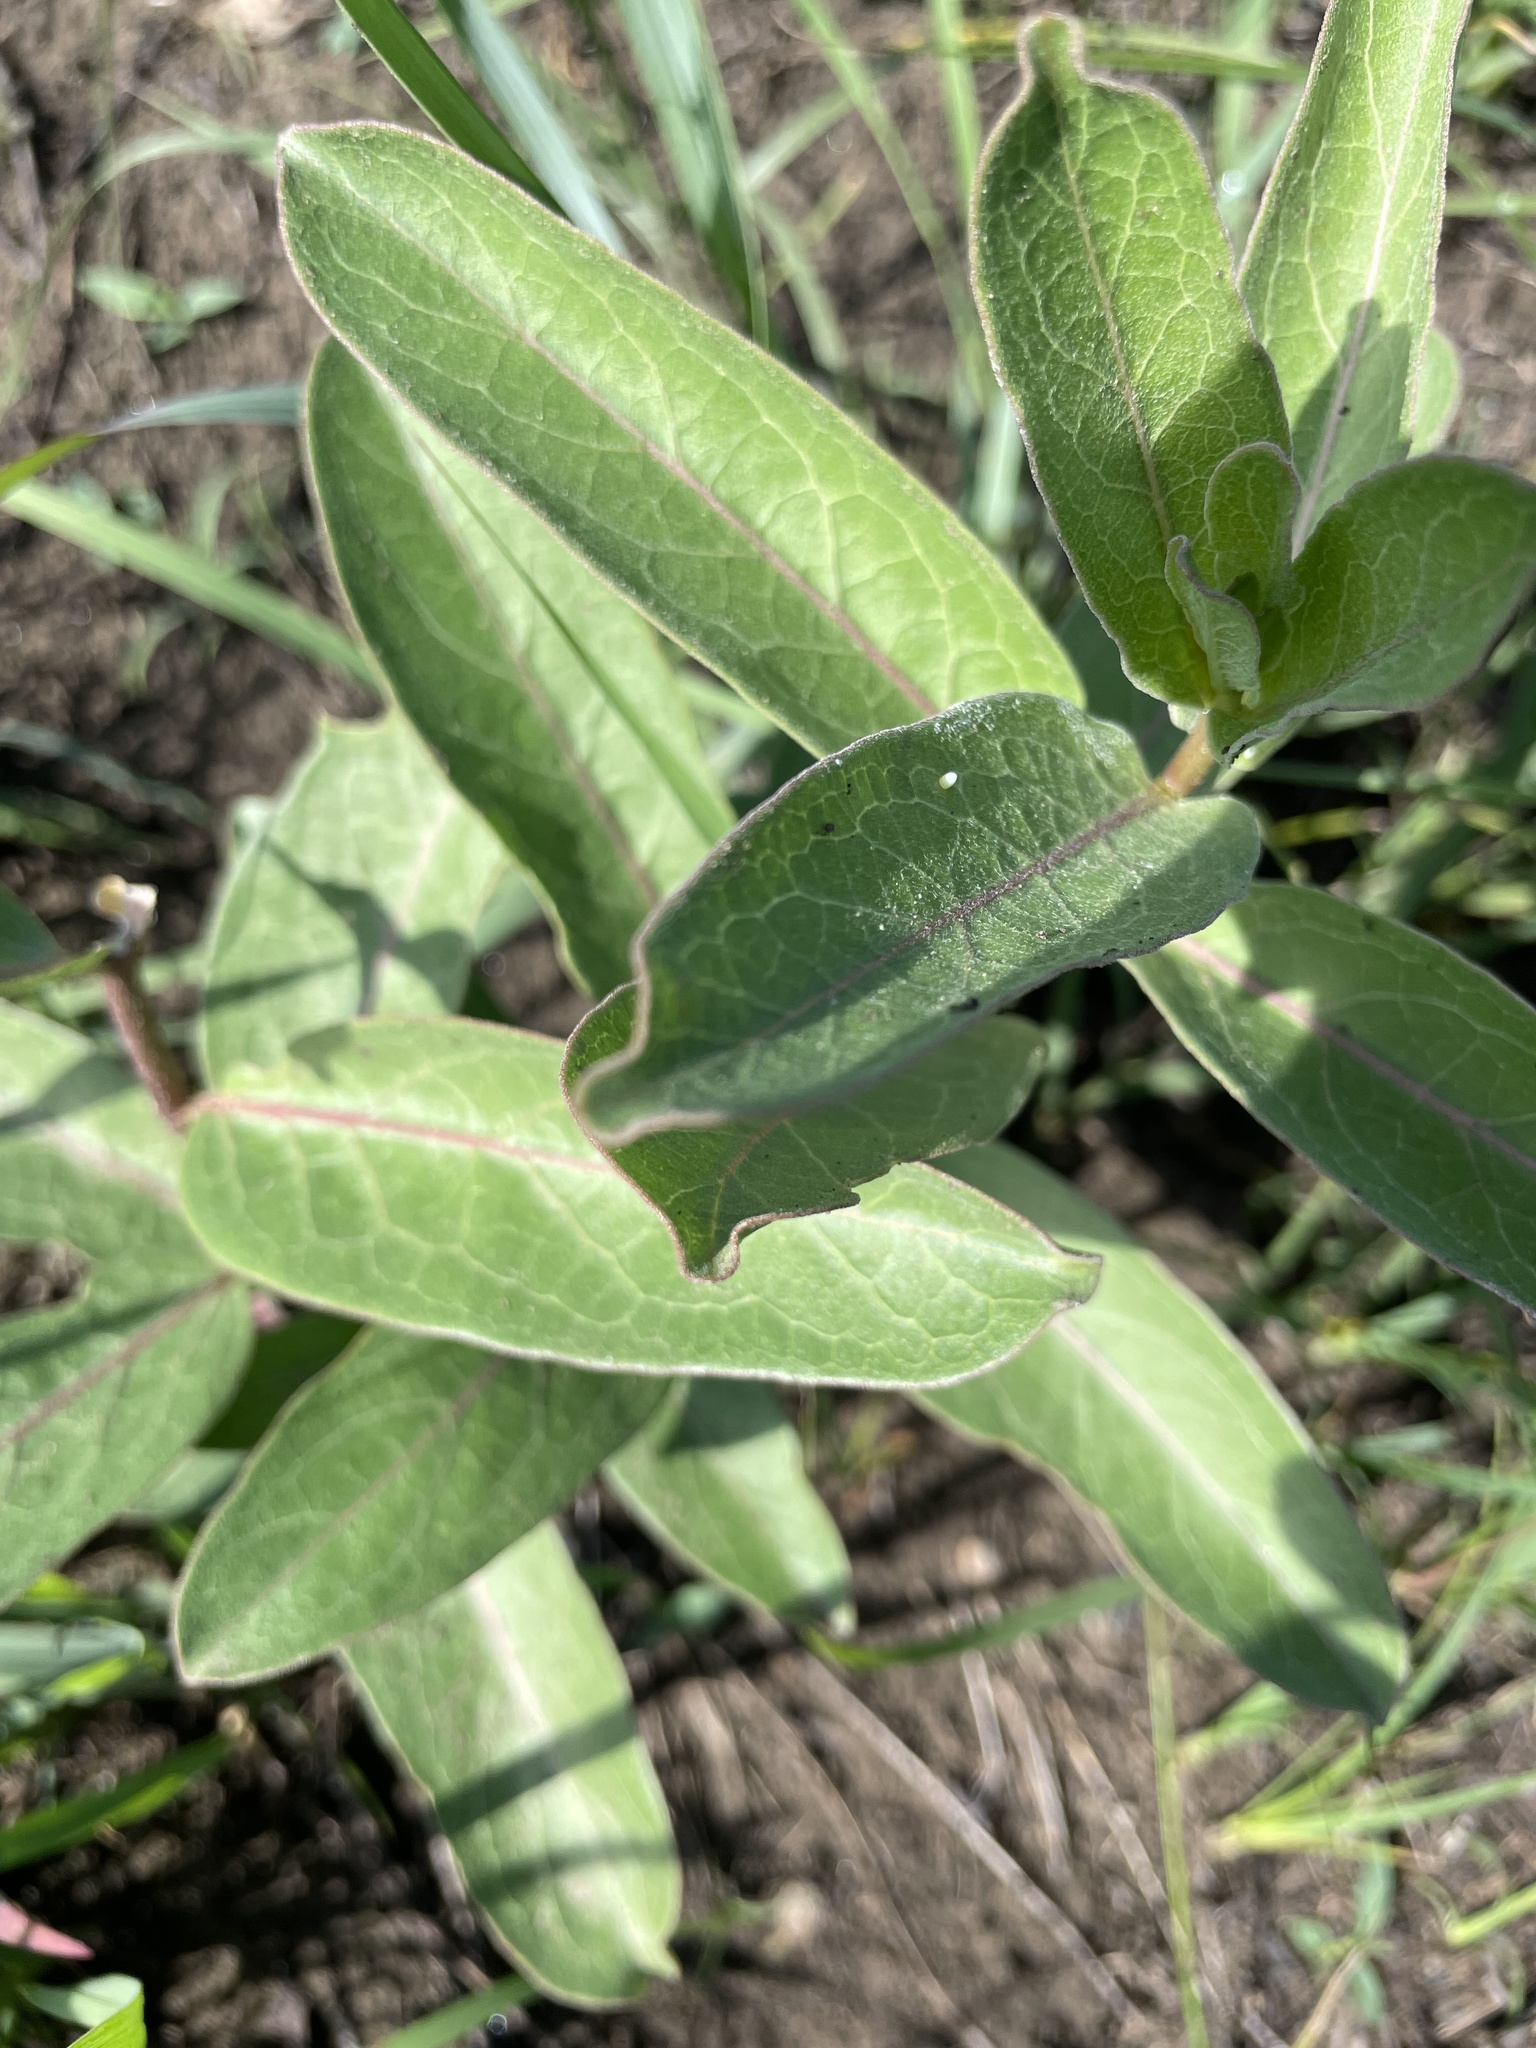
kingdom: Animalia
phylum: Arthropoda
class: Insecta
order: Lepidoptera
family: Nymphalidae
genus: Danaus
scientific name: Danaus plexippus
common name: Monarch
